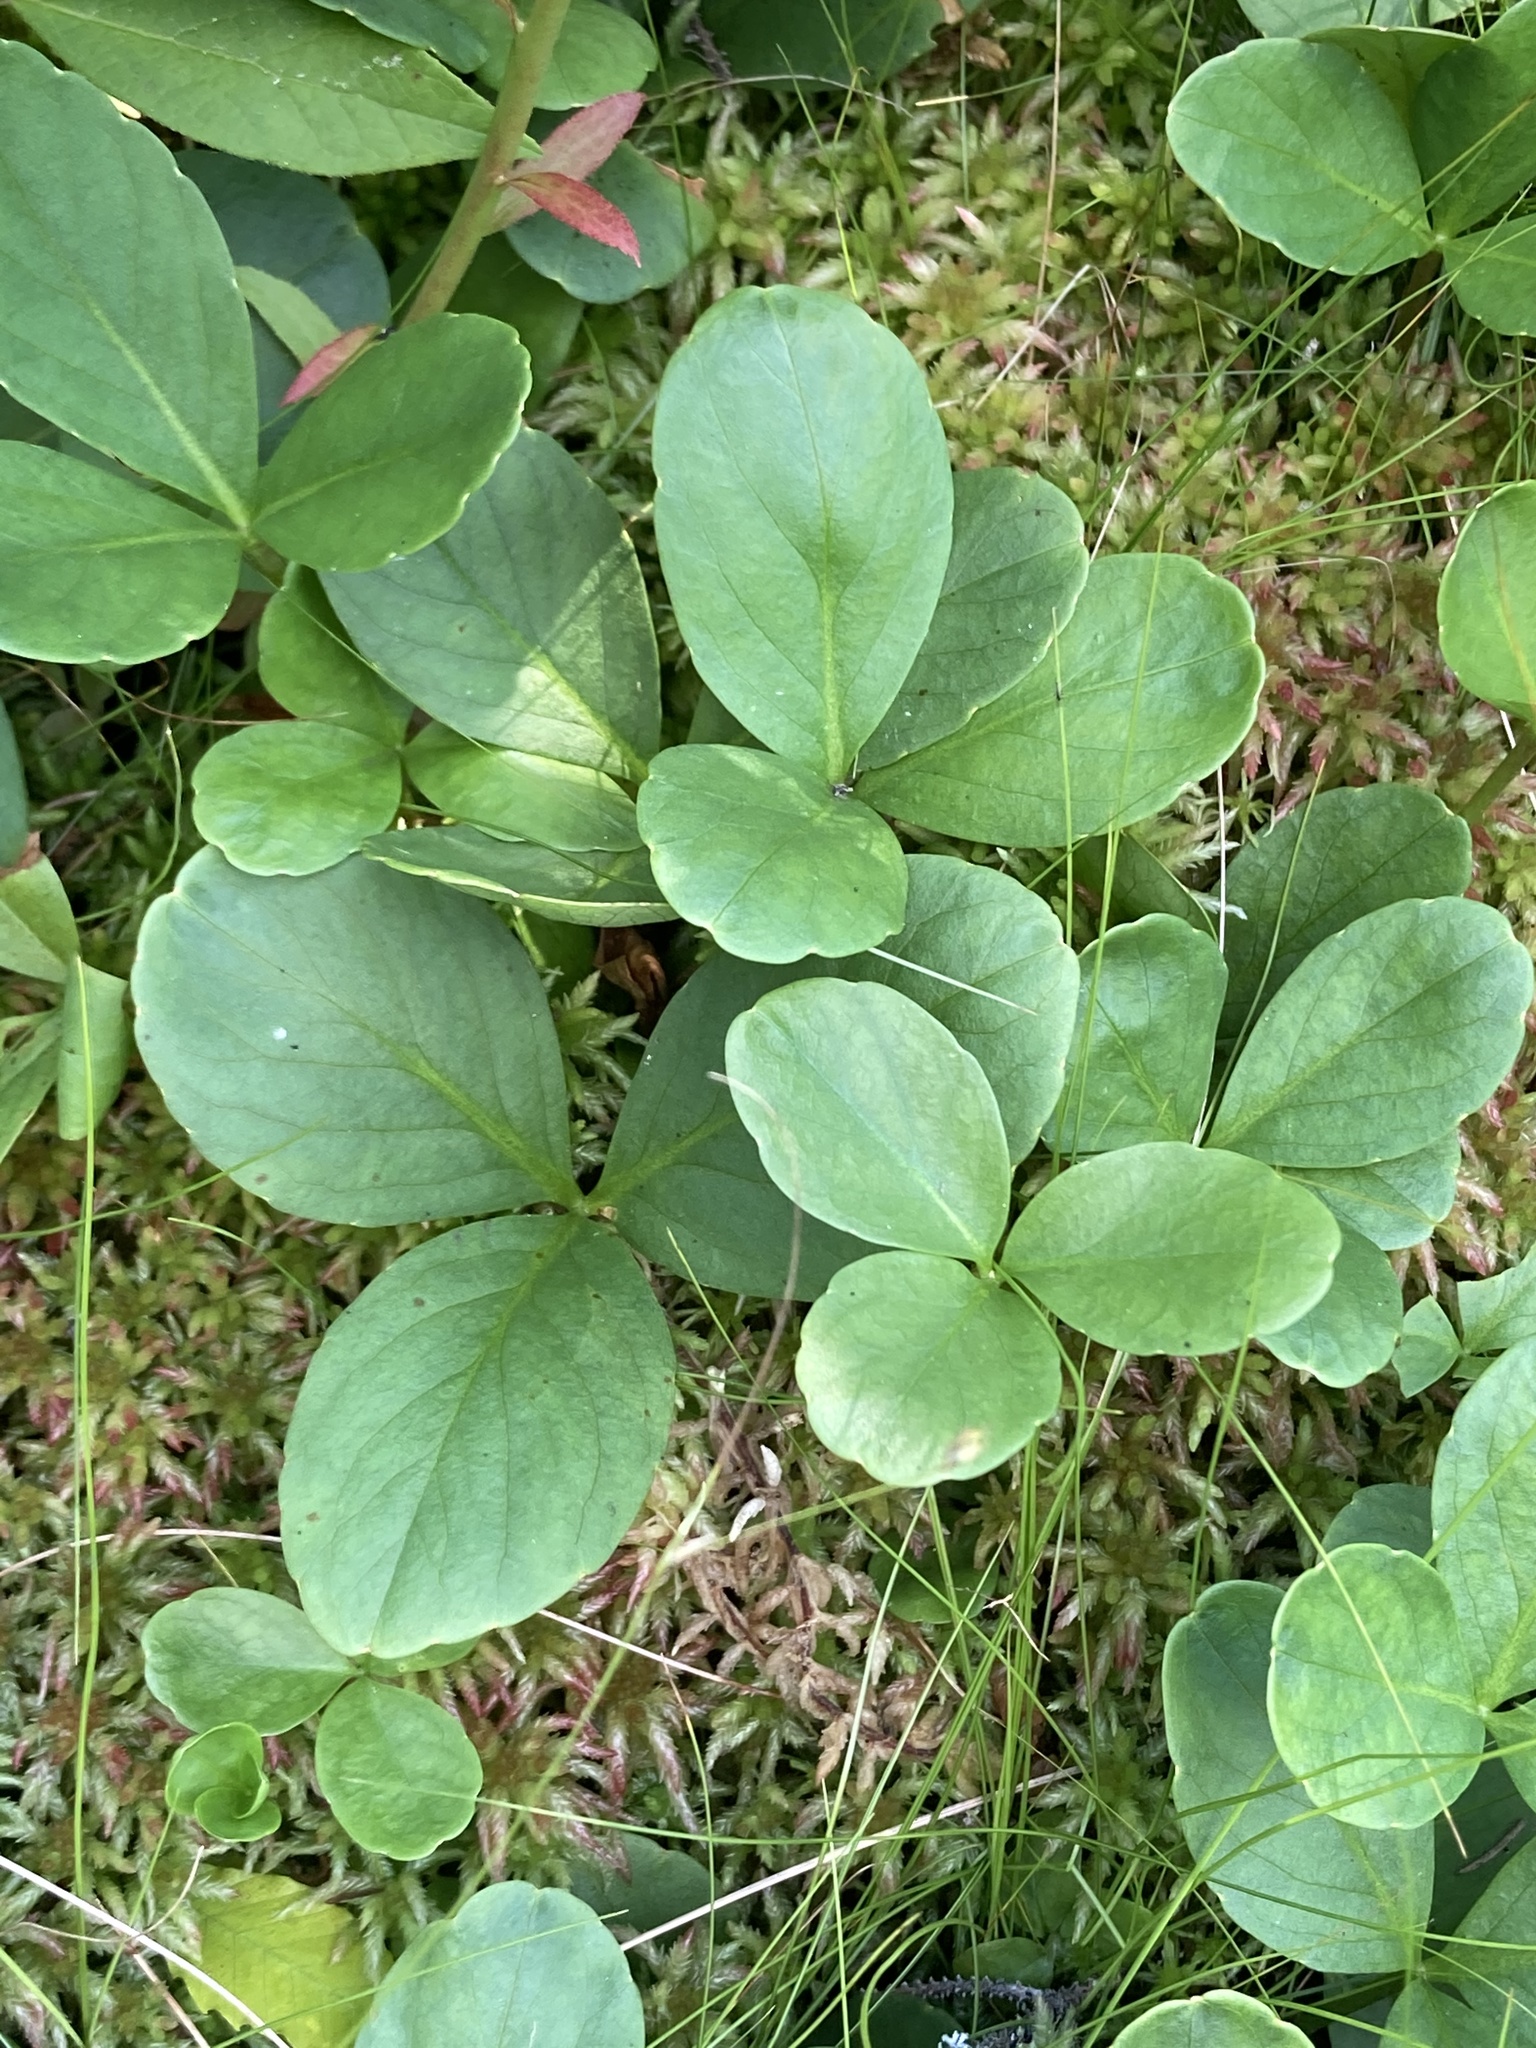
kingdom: Plantae
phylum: Tracheophyta
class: Magnoliopsida
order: Asterales
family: Menyanthaceae
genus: Menyanthes
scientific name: Menyanthes trifoliata
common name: Bogbean
